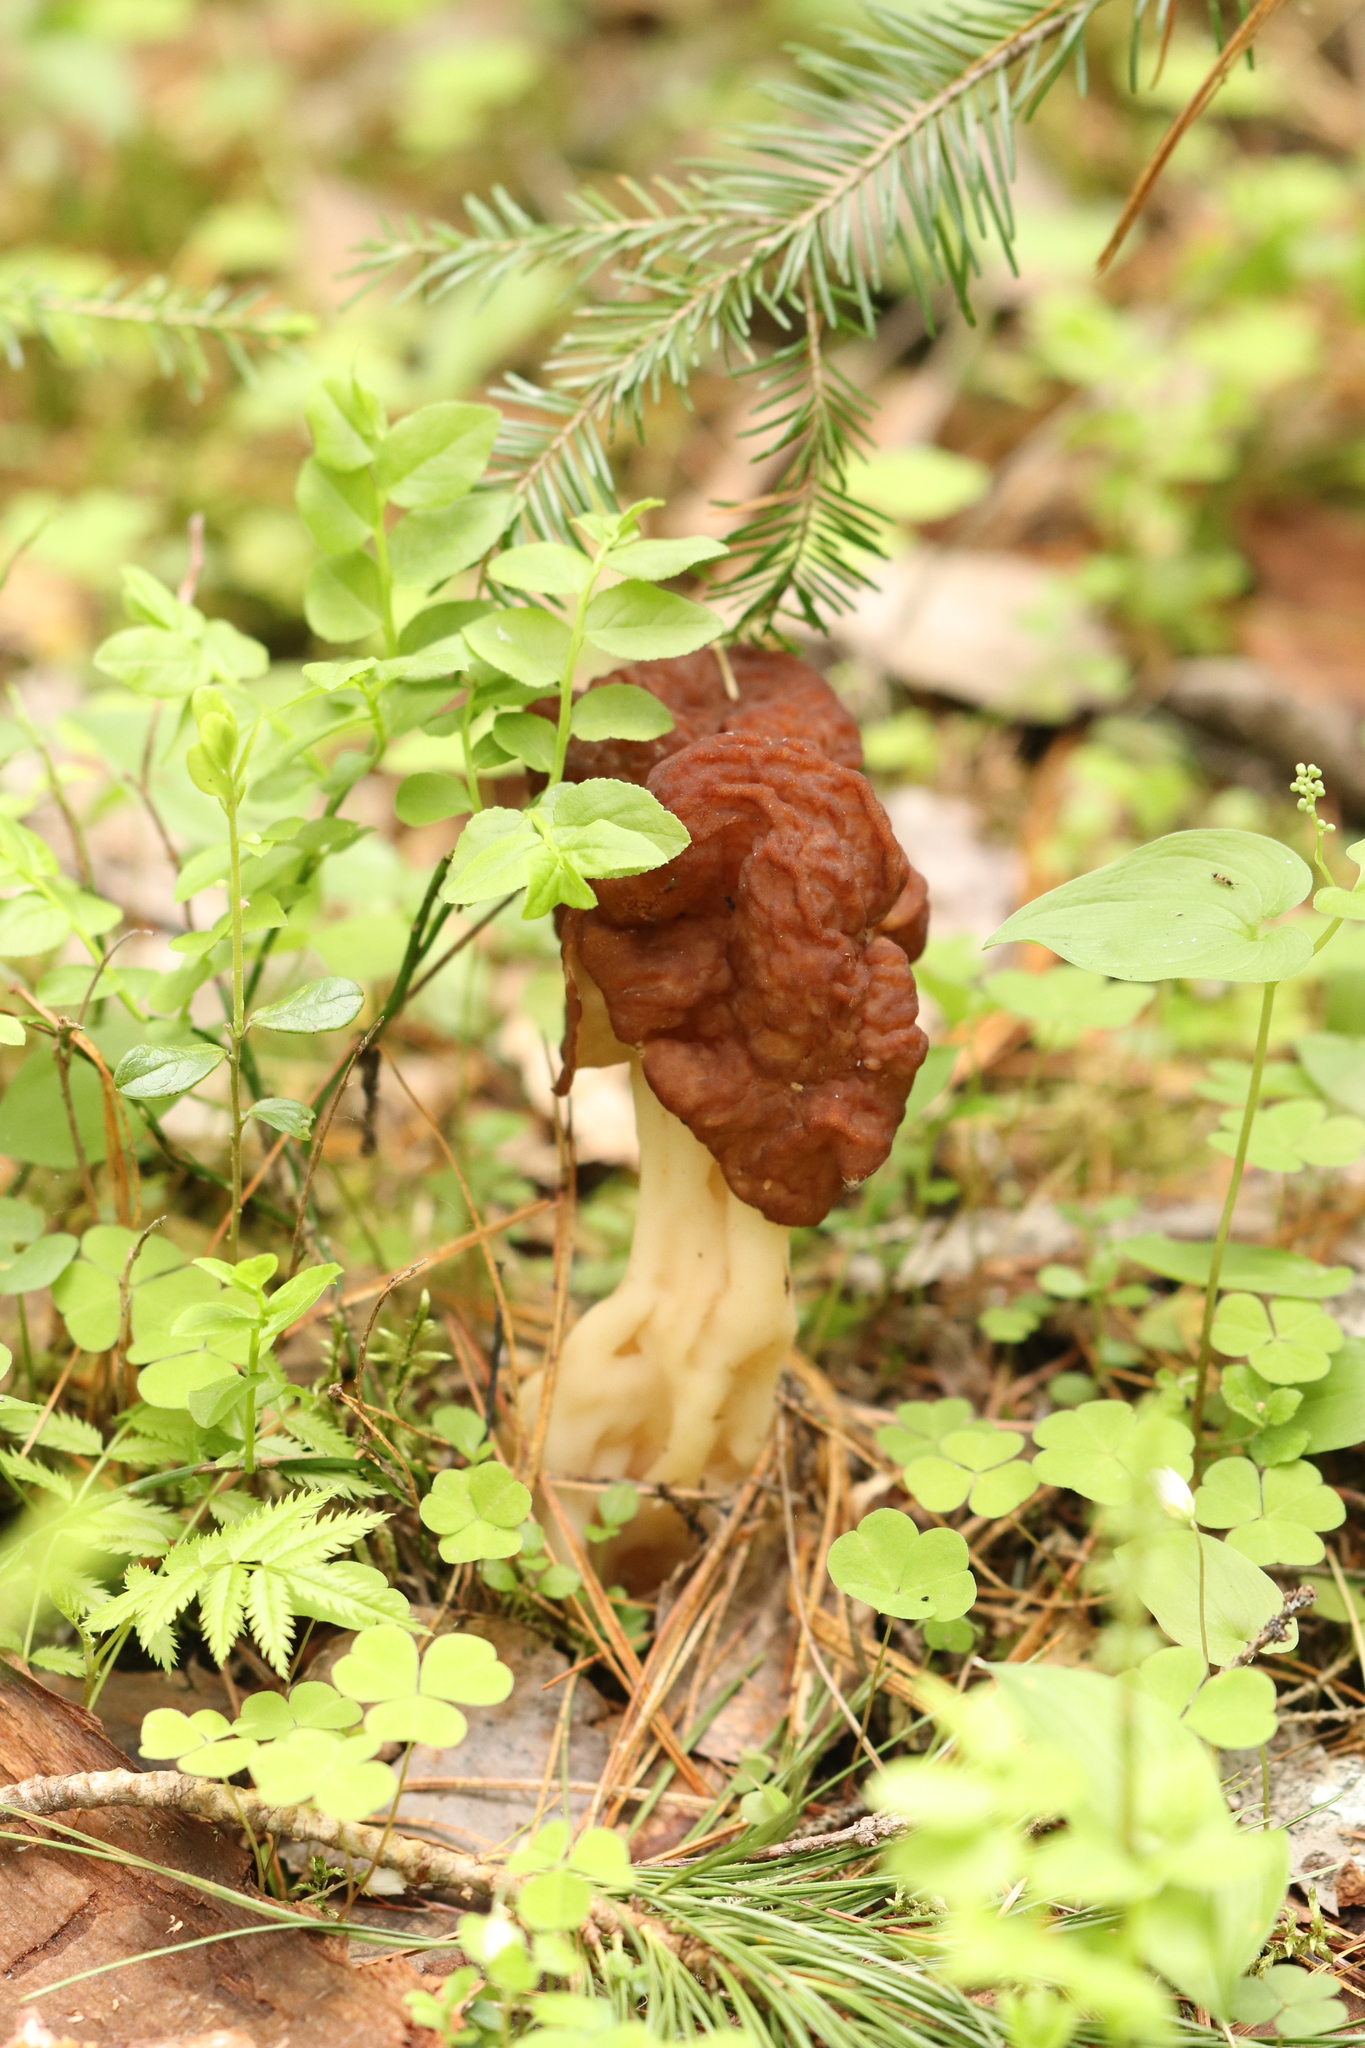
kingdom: Fungi
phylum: Ascomycota
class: Pezizomycetes
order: Pezizales
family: Discinaceae
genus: Gyromitra
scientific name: Gyromitra esculenta
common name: False morel
